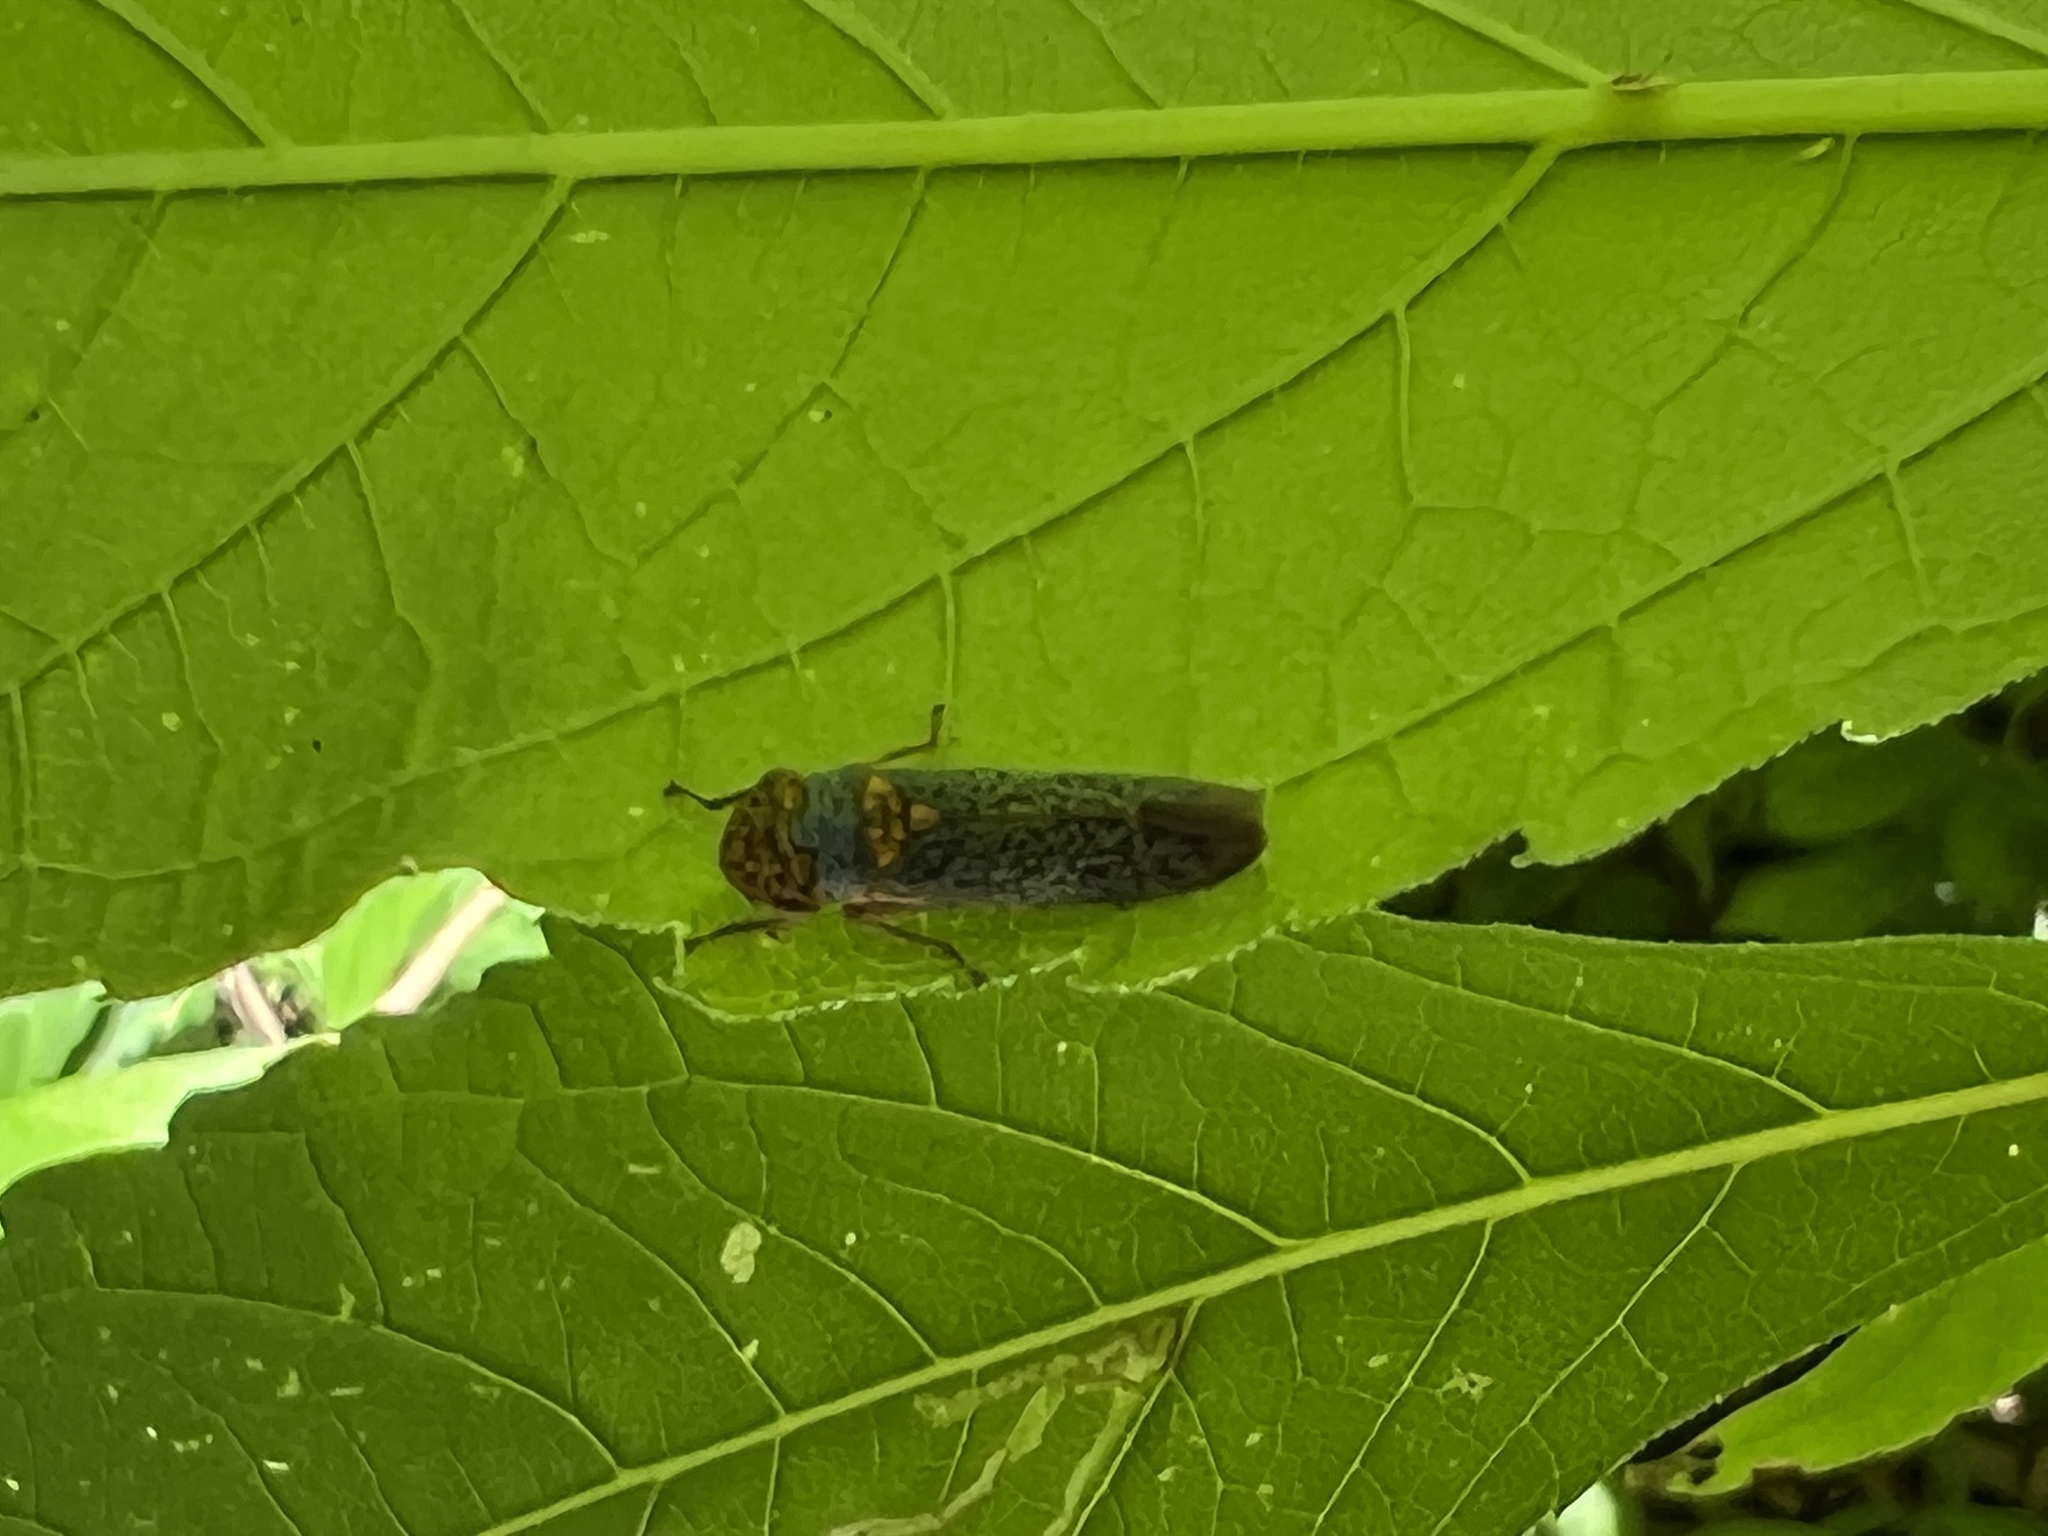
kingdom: Animalia
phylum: Arthropoda
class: Insecta
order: Hemiptera
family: Cicadellidae
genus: Oncometopia
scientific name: Oncometopia orbona
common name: Broad-headed sharpshooter
